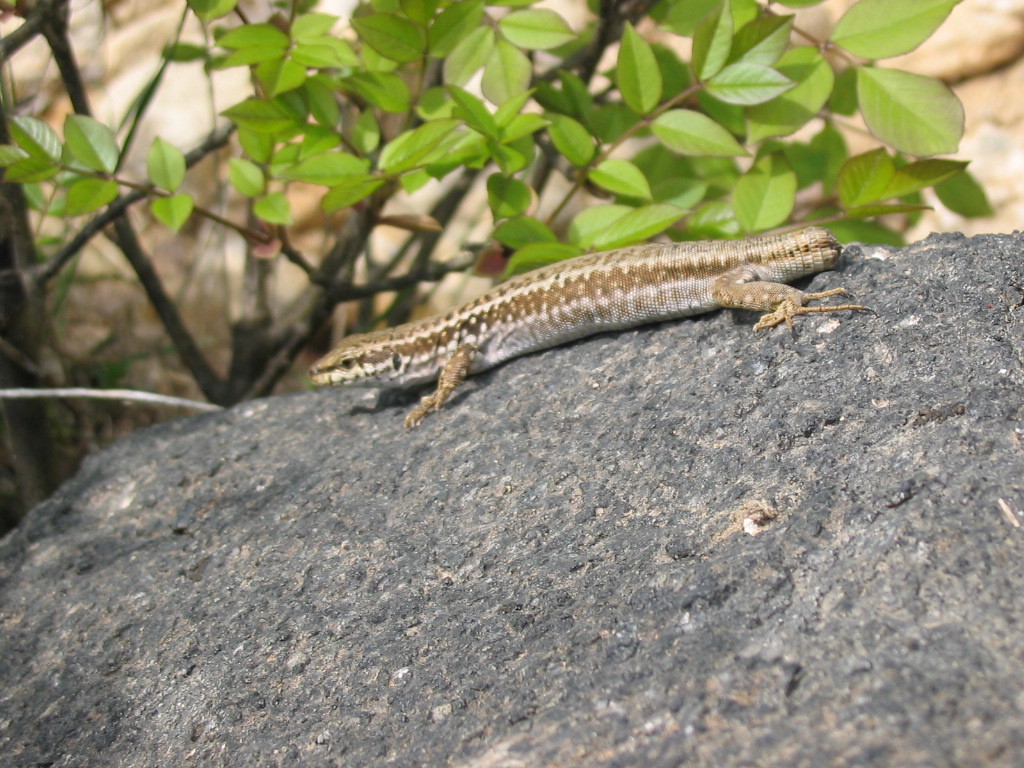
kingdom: Animalia
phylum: Chordata
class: Squamata
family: Lacertidae
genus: Podarcis
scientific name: Podarcis erhardii
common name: Erhard's wall lizard
